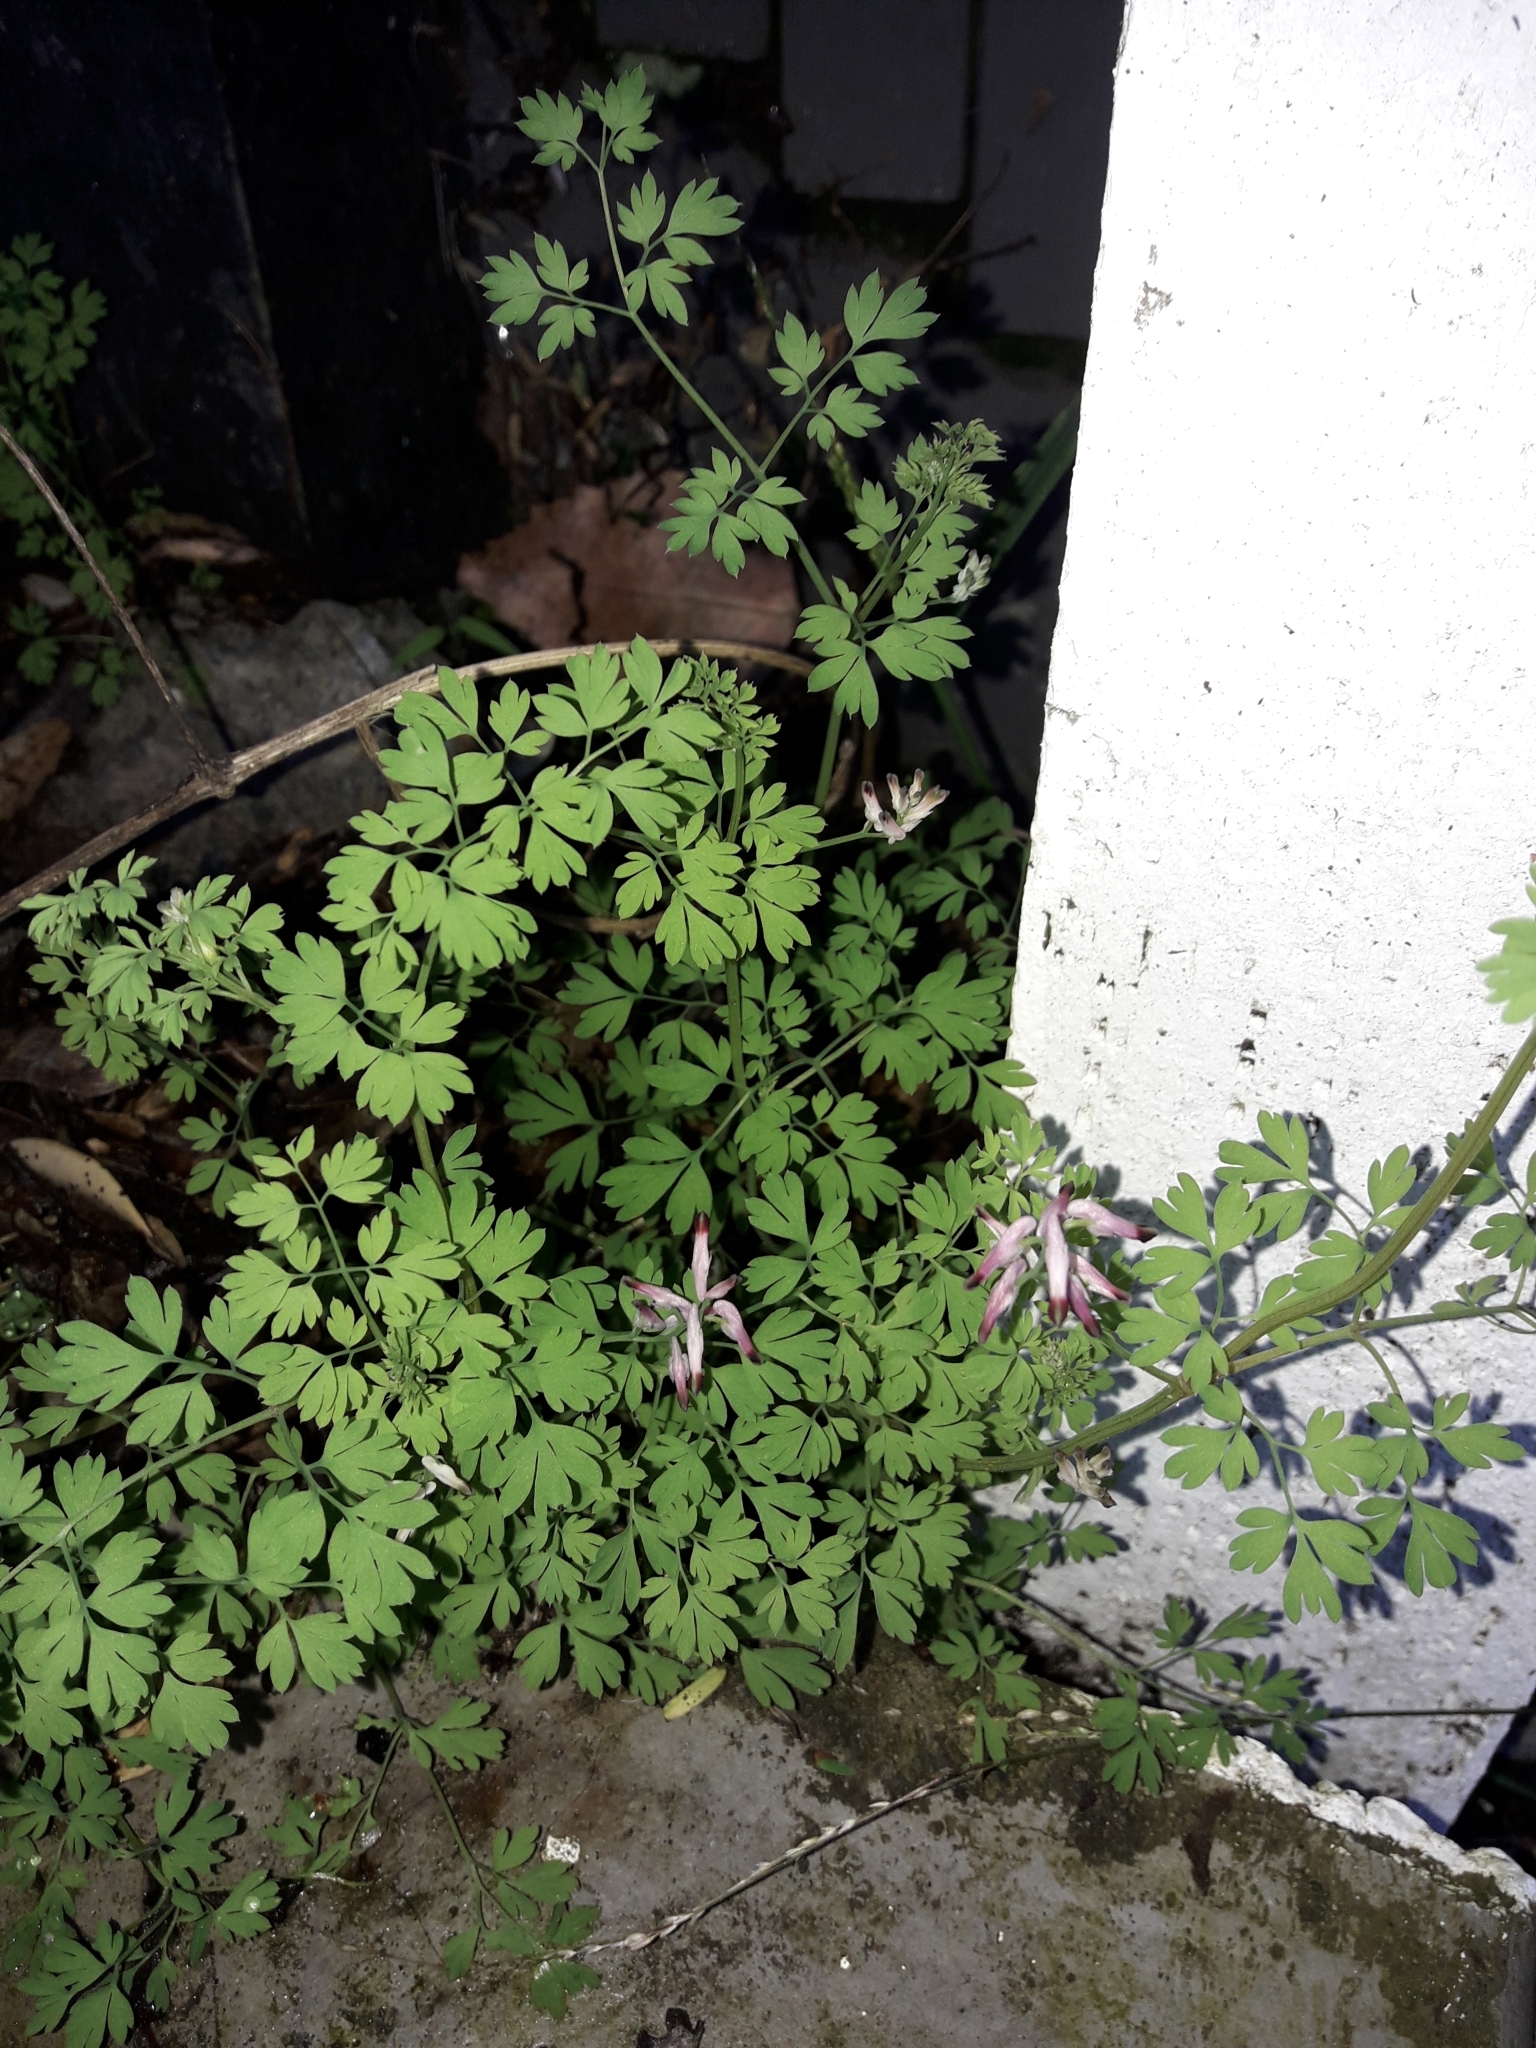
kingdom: Plantae
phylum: Tracheophyta
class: Magnoliopsida
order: Ranunculales
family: Papaveraceae
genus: Fumaria
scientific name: Fumaria muralis
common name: Common ramping-fumitory
